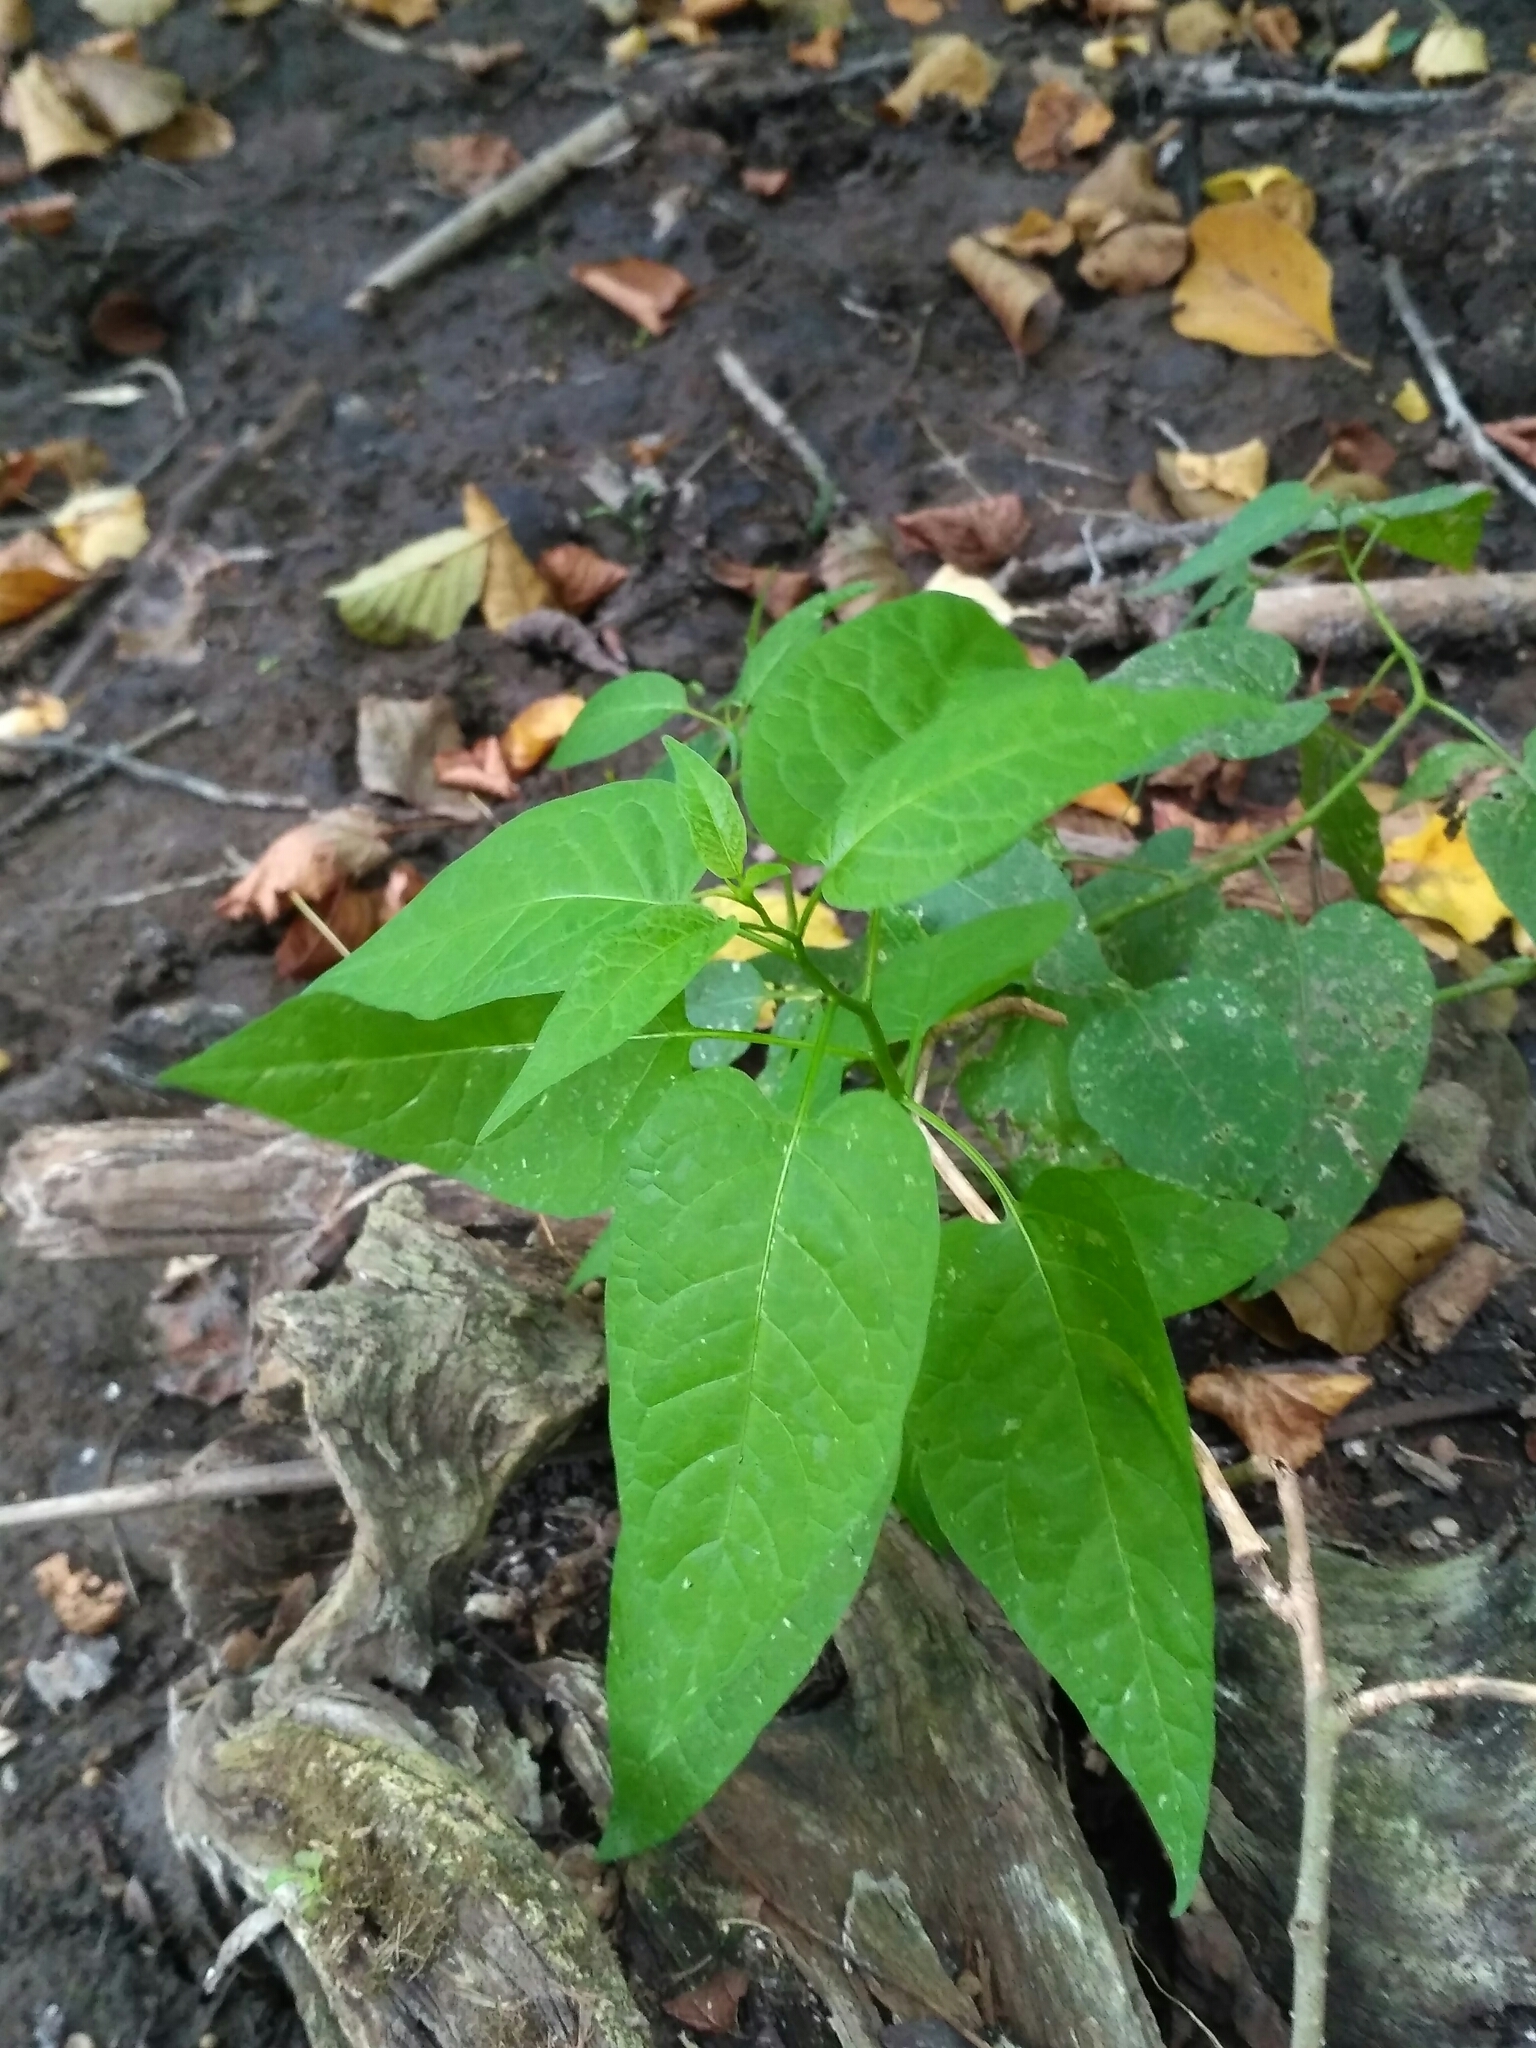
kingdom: Plantae
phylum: Tracheophyta
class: Magnoliopsida
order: Solanales
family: Solanaceae
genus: Solanum
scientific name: Solanum dulcamara
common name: Climbing nightshade
